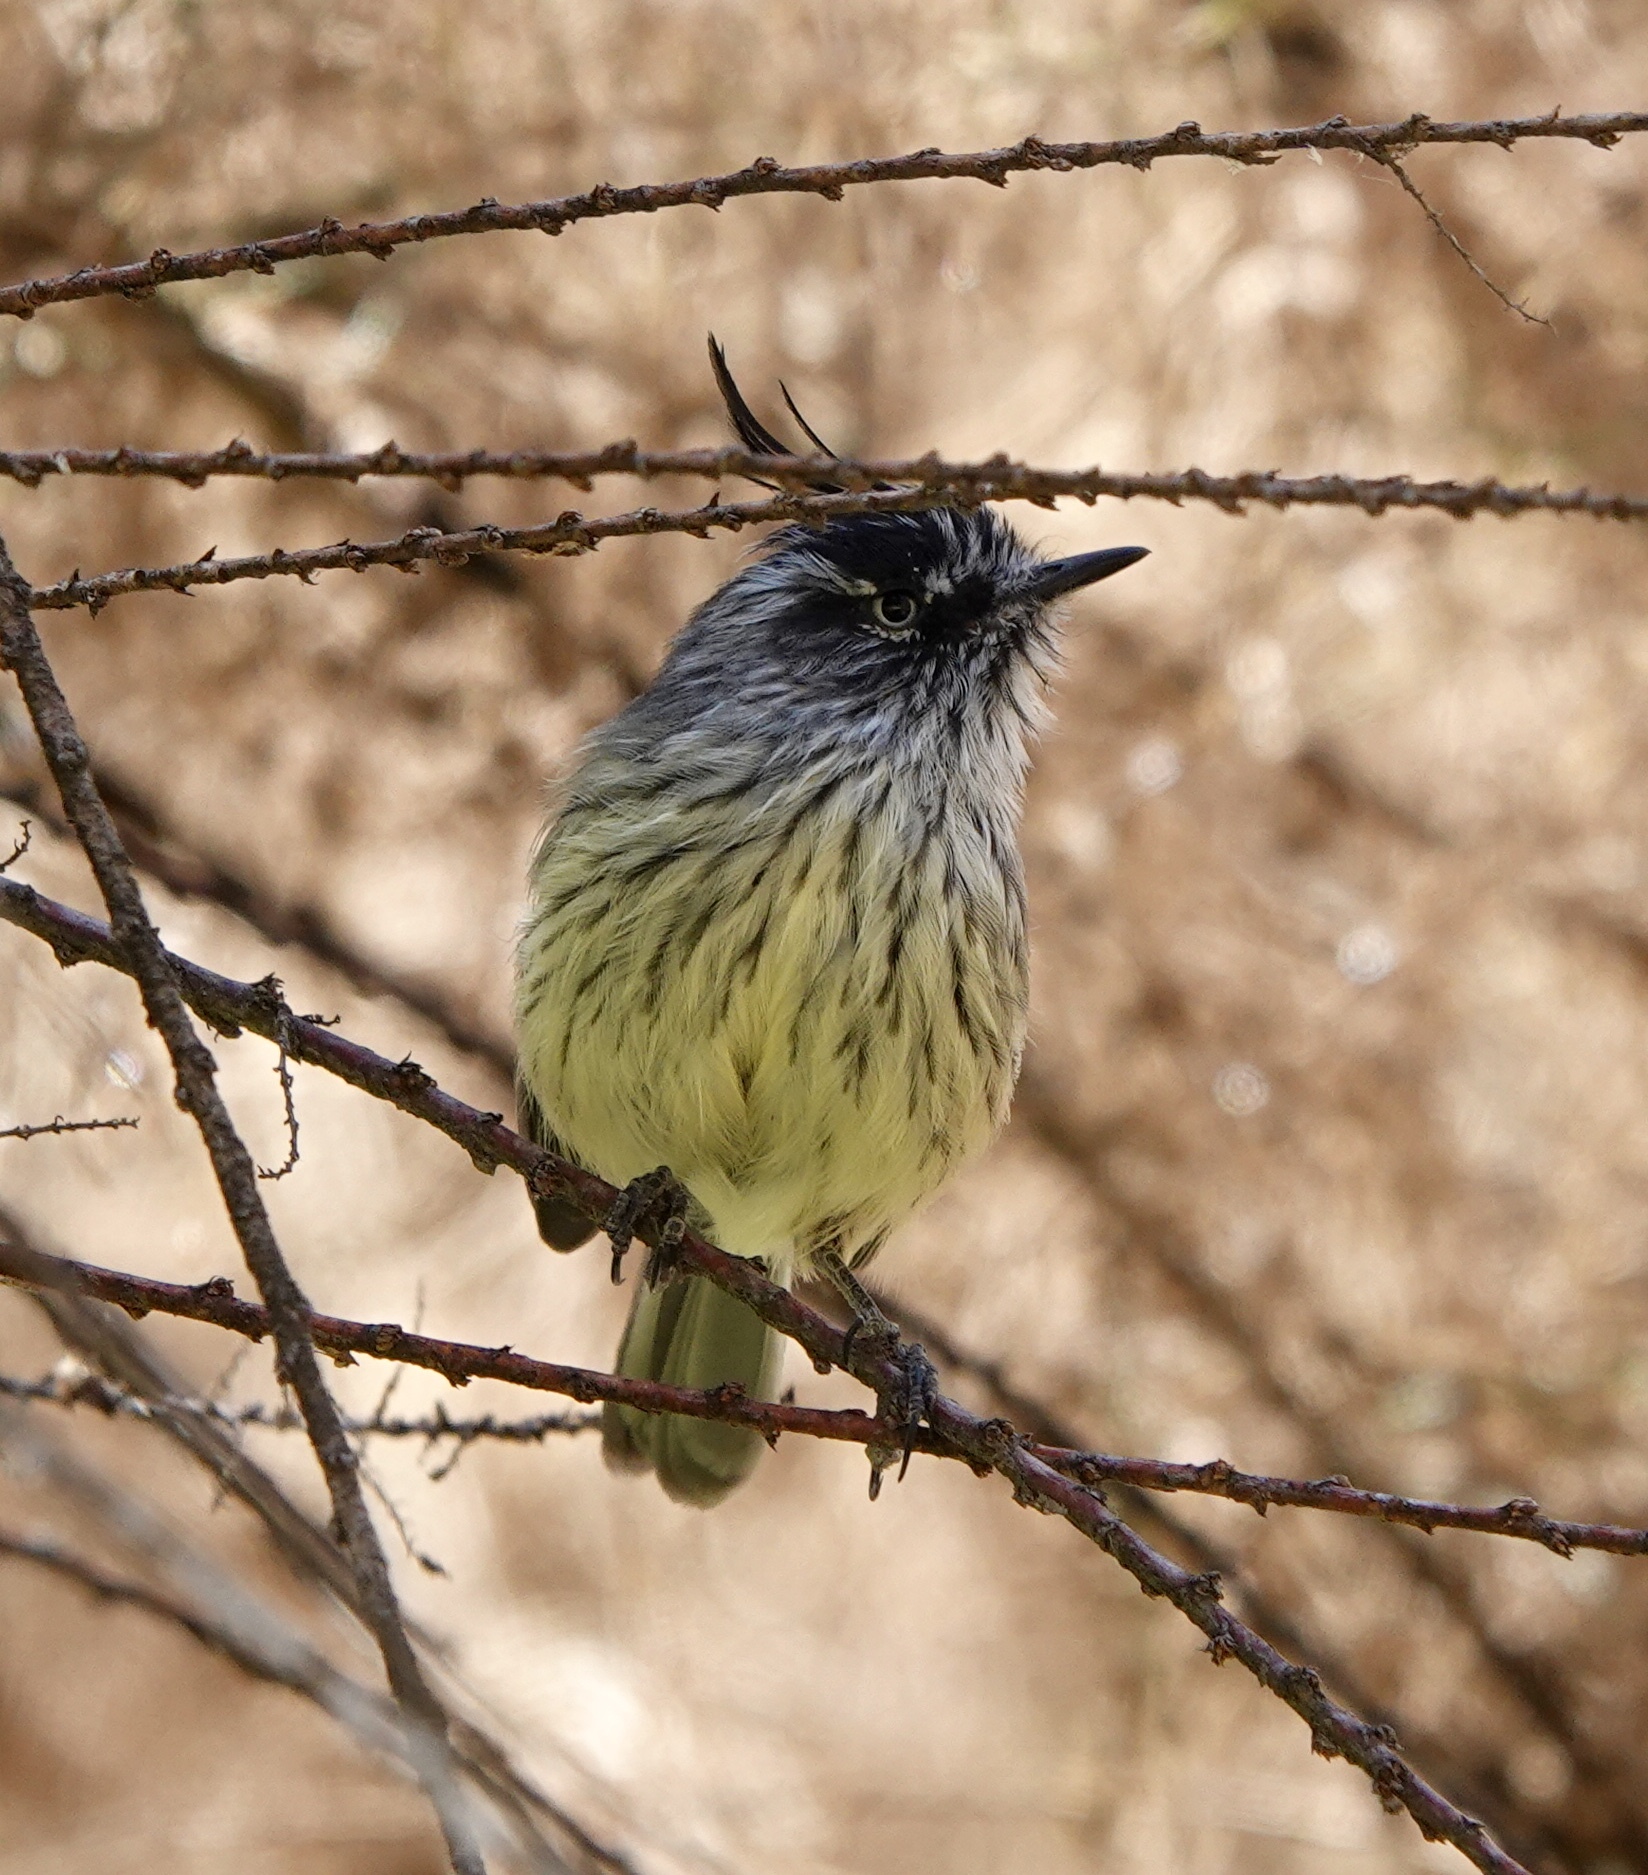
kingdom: Animalia
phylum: Chordata
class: Aves
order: Passeriformes
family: Tyrannidae
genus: Anairetes
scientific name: Anairetes parulus
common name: Tufted tit-tyrant
